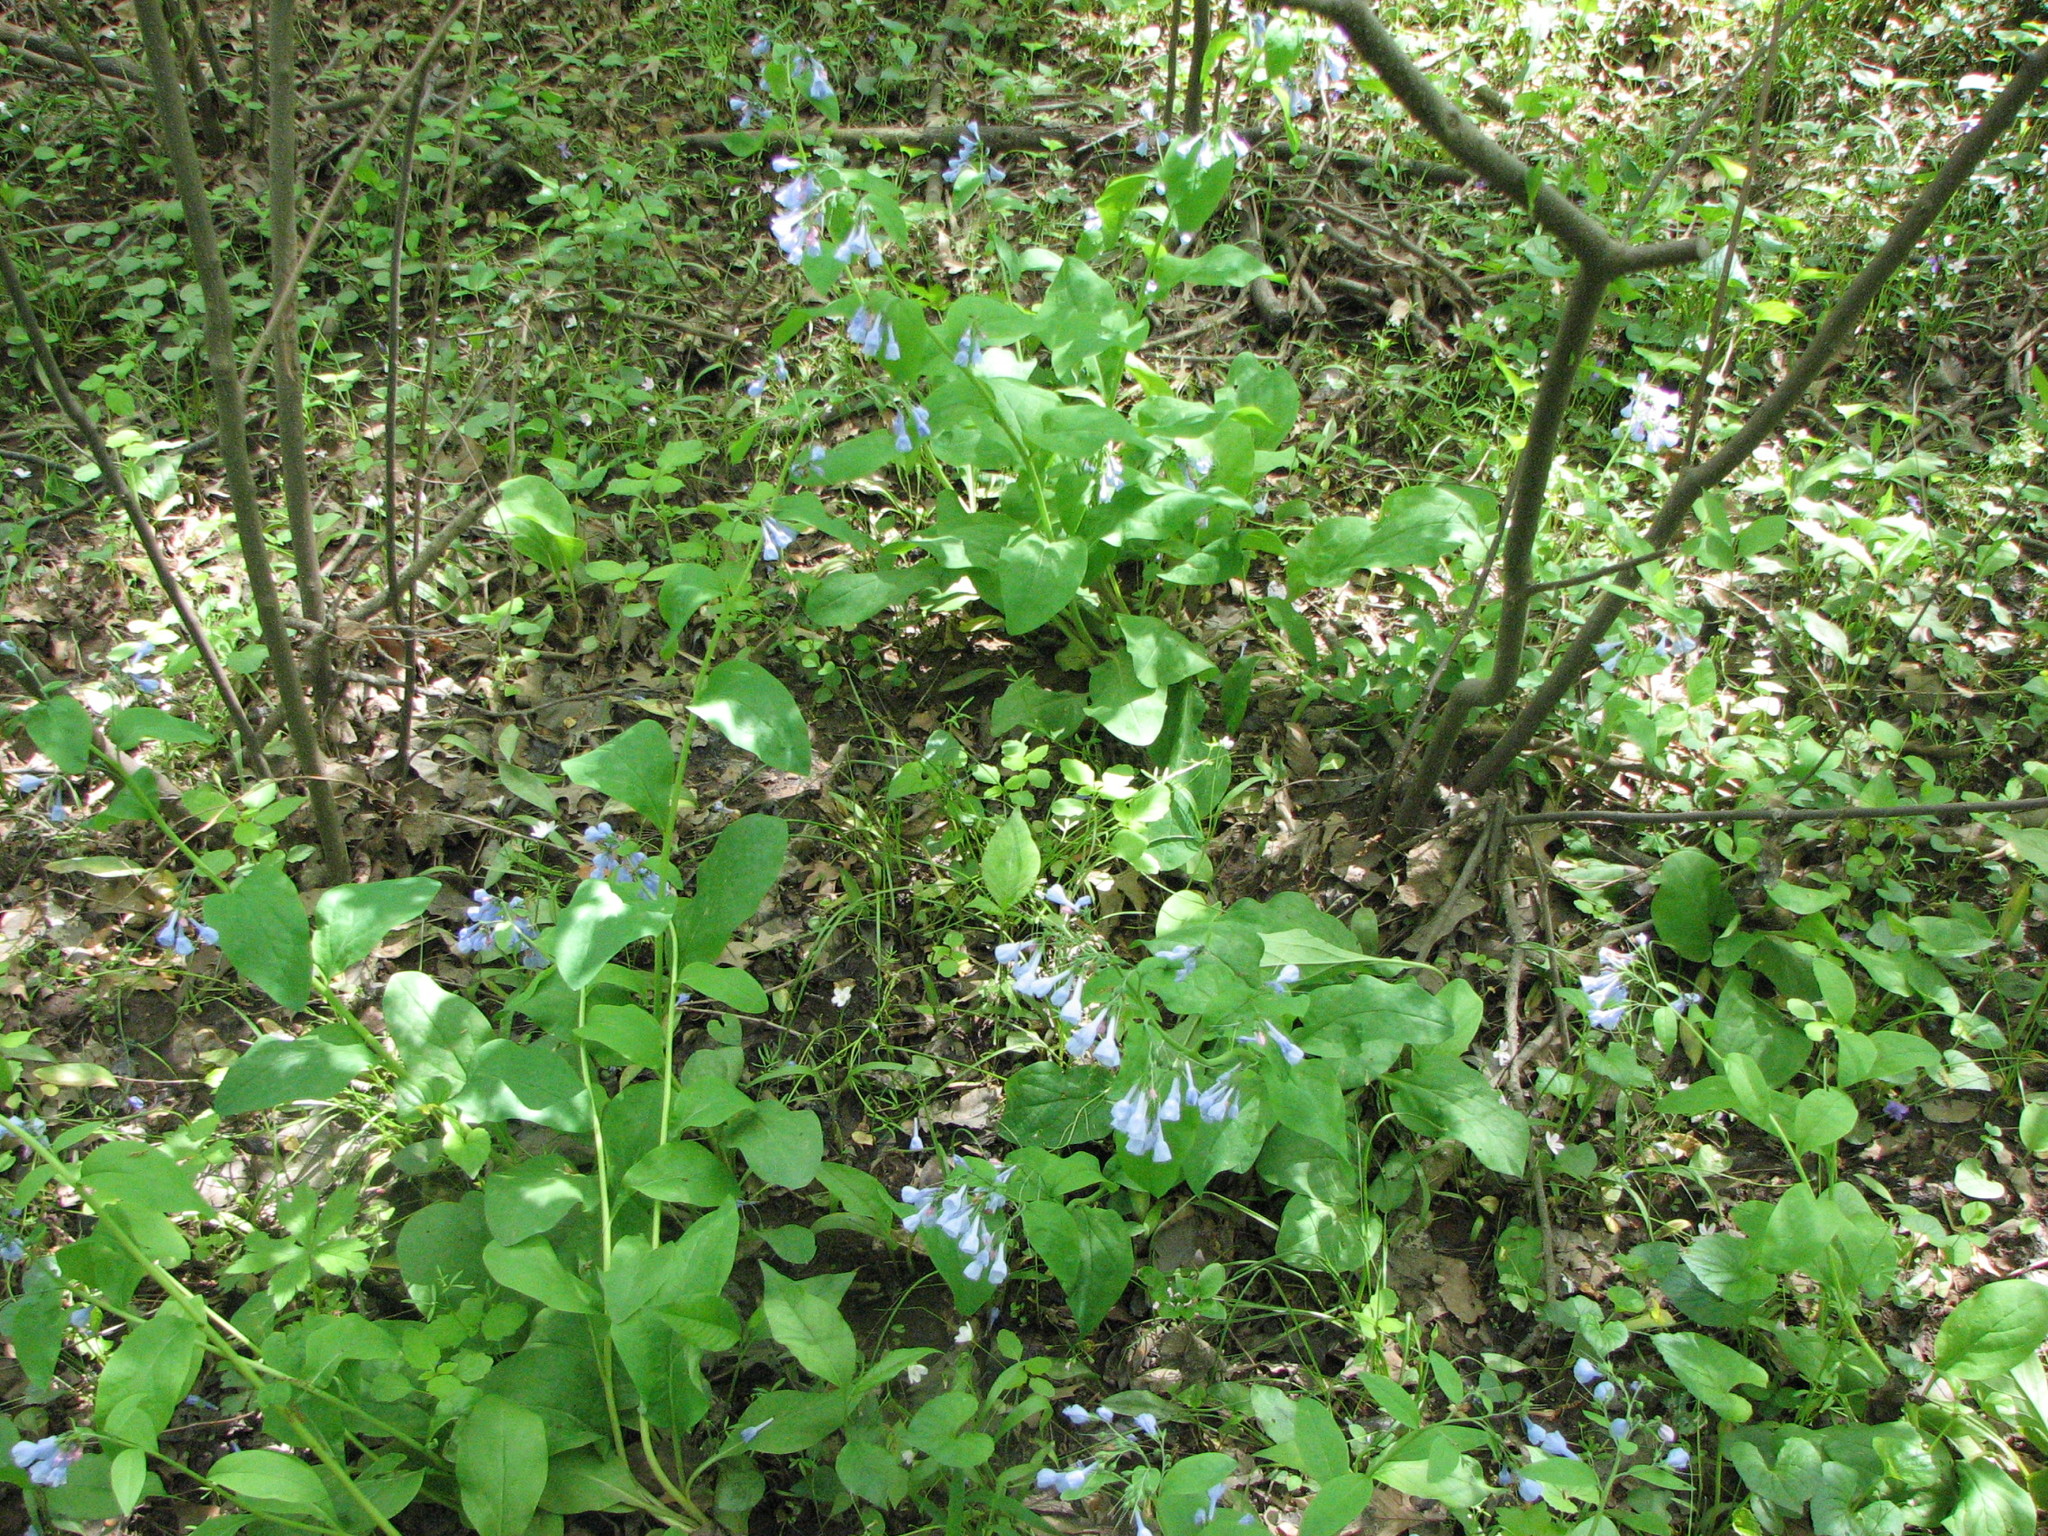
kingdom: Plantae
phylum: Tracheophyta
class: Magnoliopsida
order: Boraginales
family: Boraginaceae
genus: Mertensia
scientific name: Mertensia virginica
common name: Virginia bluebells
